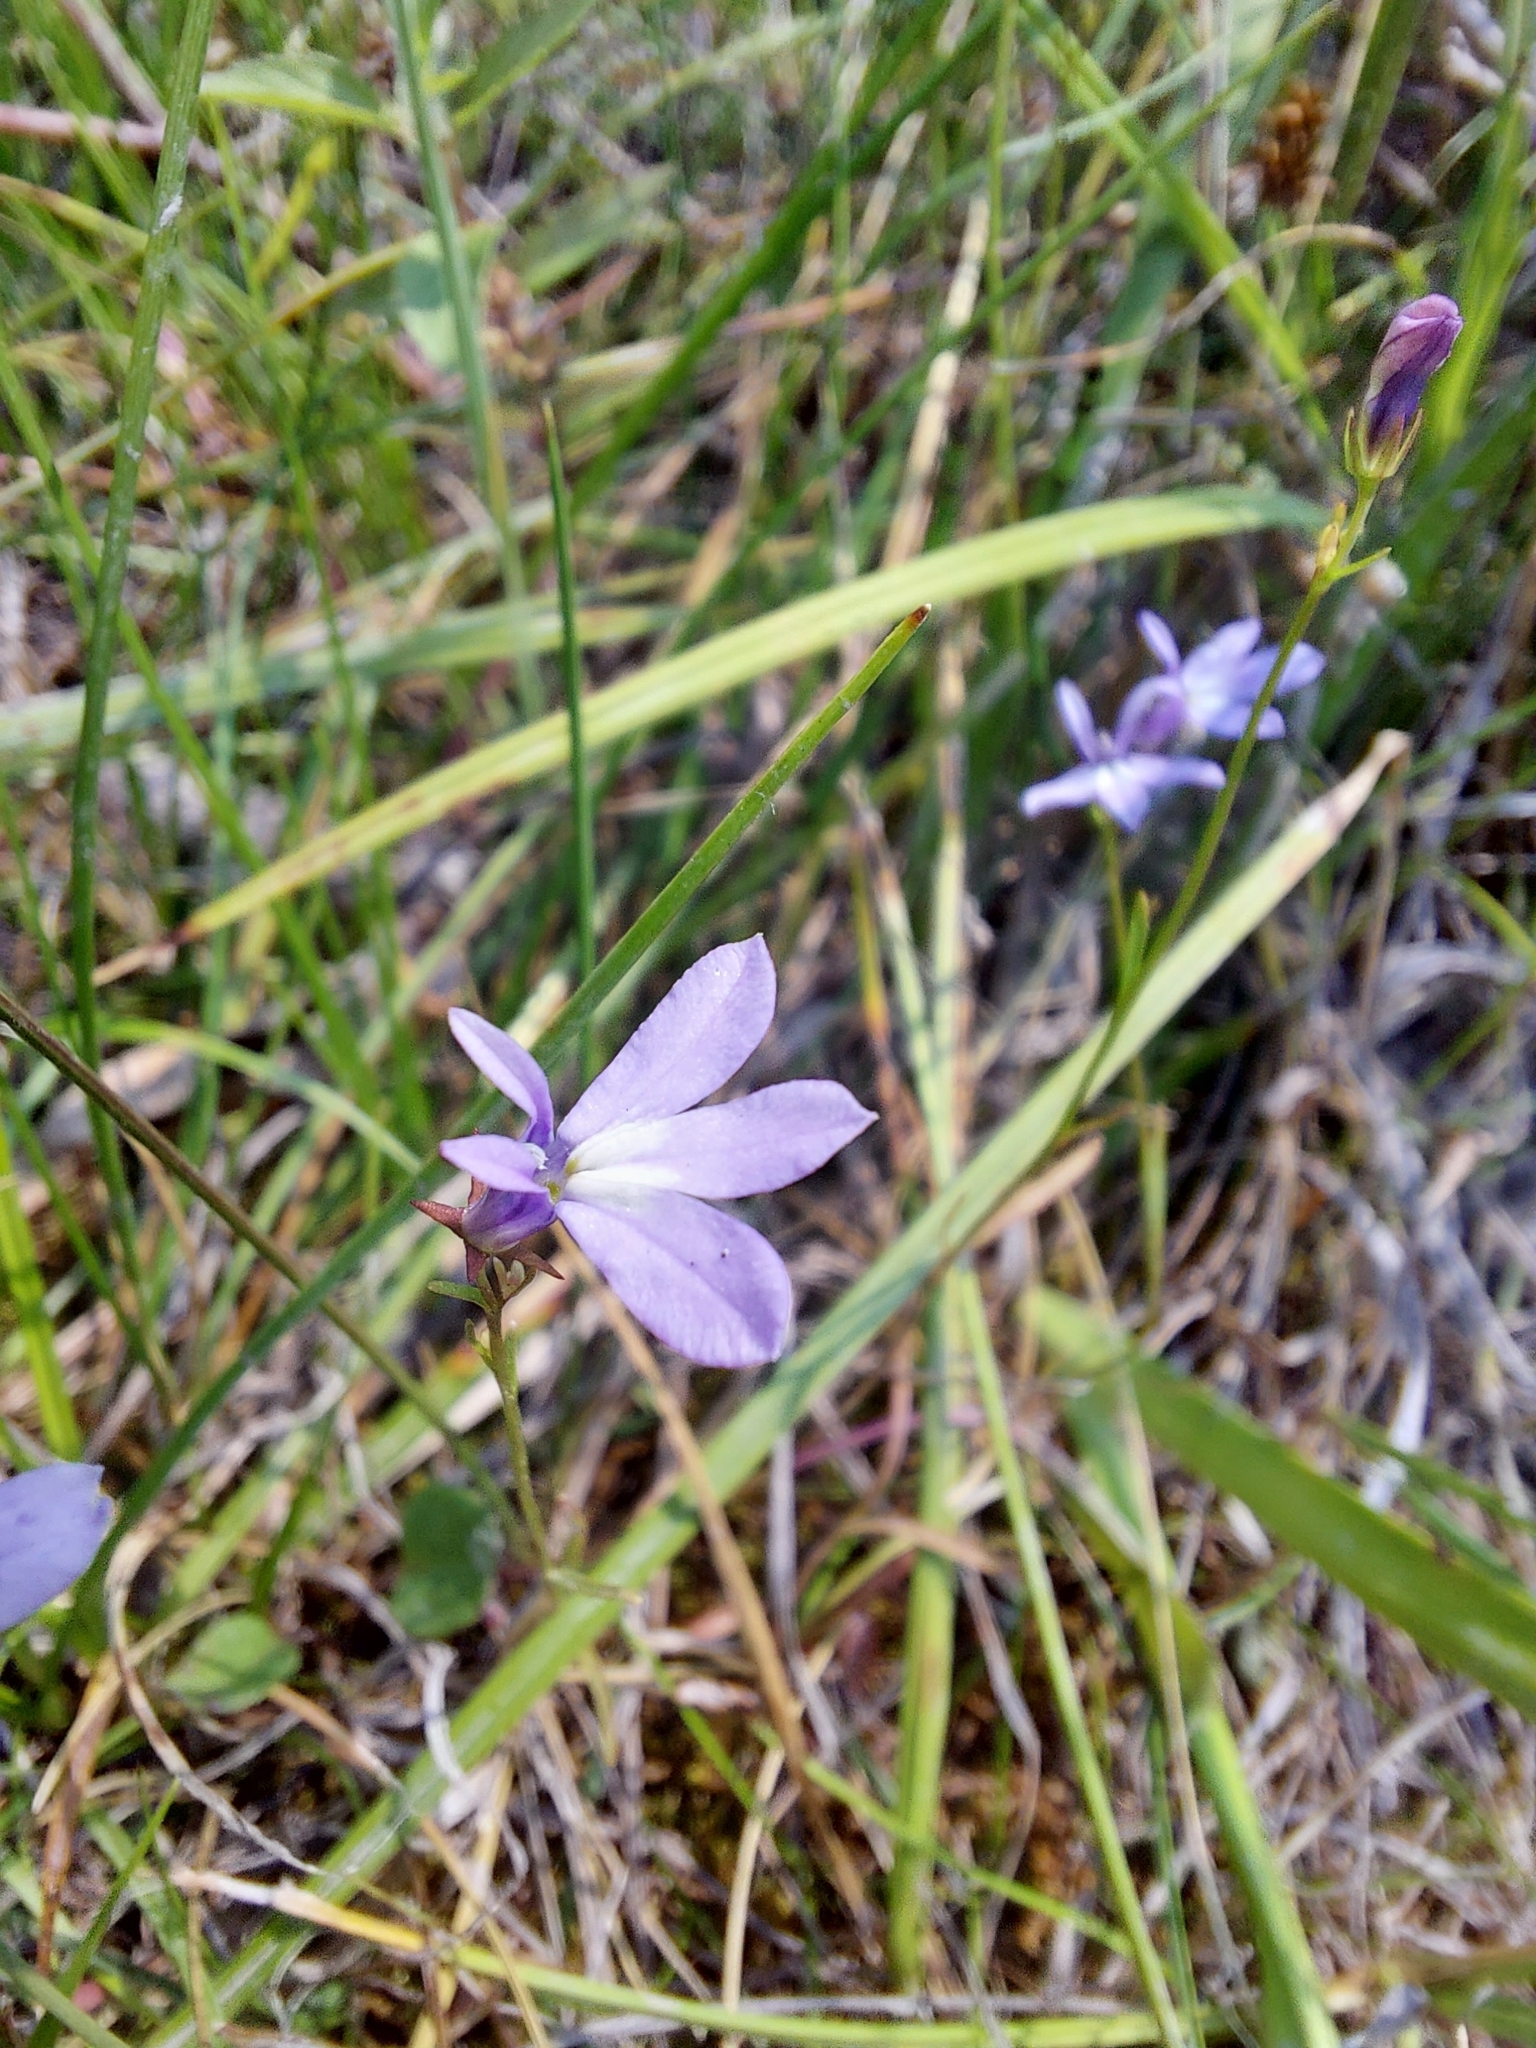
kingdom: Plantae
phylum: Tracheophyta
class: Magnoliopsida
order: Asterales
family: Campanulaceae
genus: Lobelia
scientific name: Lobelia kalmii
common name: Kalm's lobelia
